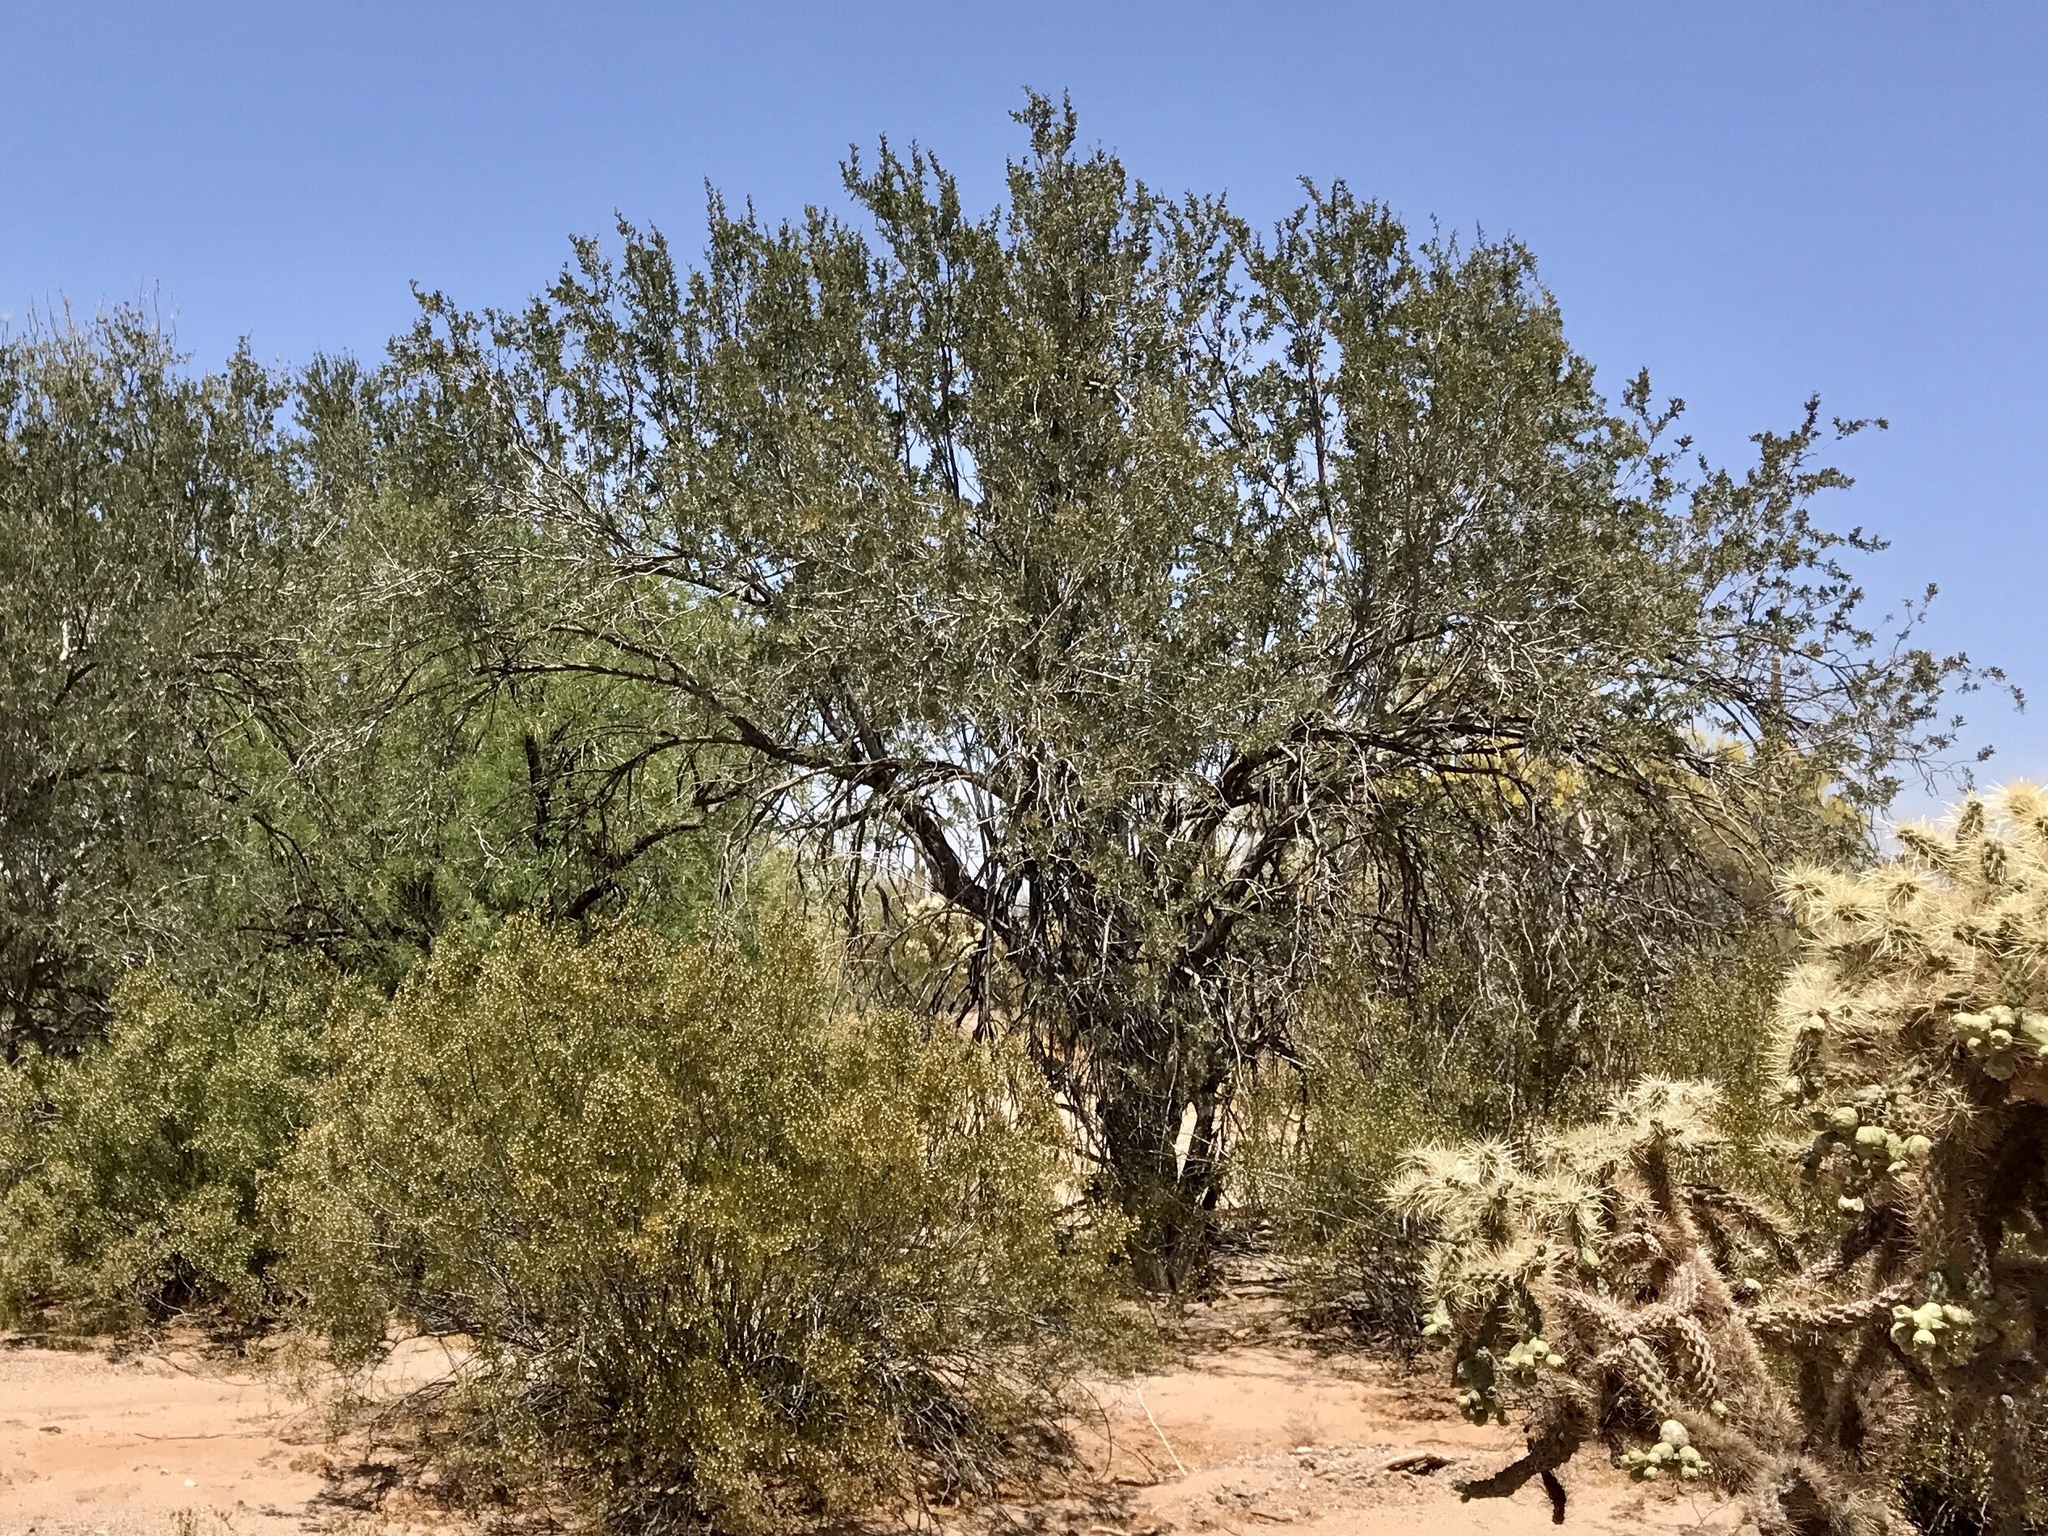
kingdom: Plantae
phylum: Tracheophyta
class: Magnoliopsida
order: Fabales
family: Fabaceae
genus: Olneya
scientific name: Olneya tesota
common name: Desert ironwood
